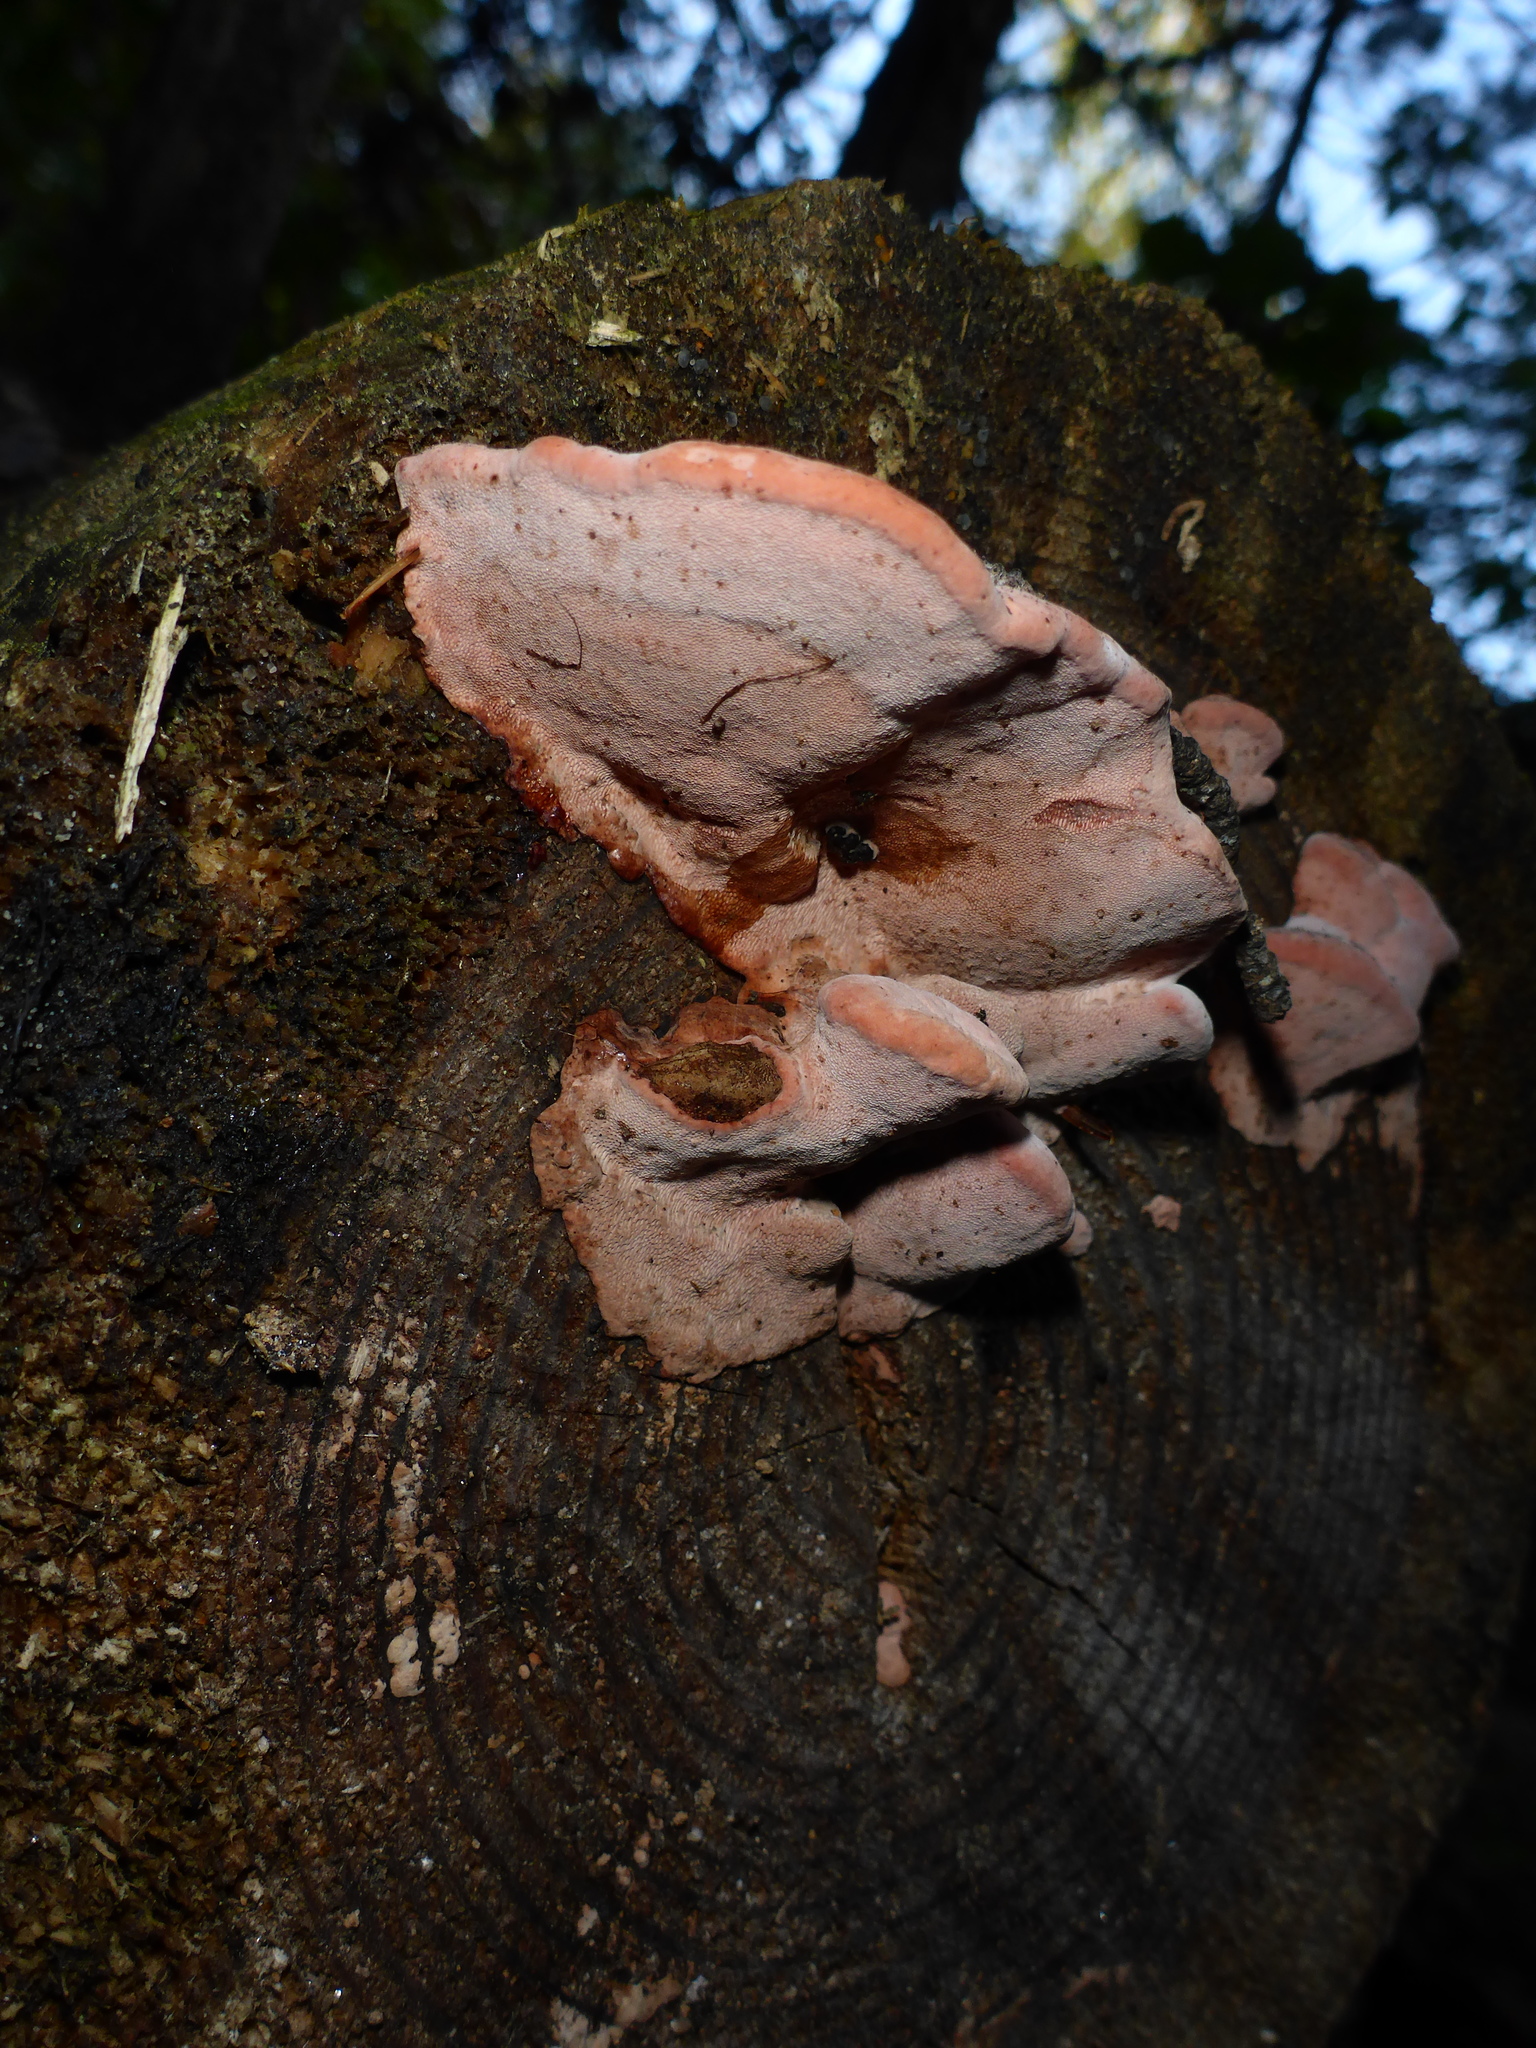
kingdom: Fungi
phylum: Basidiomycota
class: Agaricomycetes
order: Polyporales
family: Fomitopsidaceae
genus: Rhodofomes
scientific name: Rhodofomes cajanderi
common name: Rosy conk
